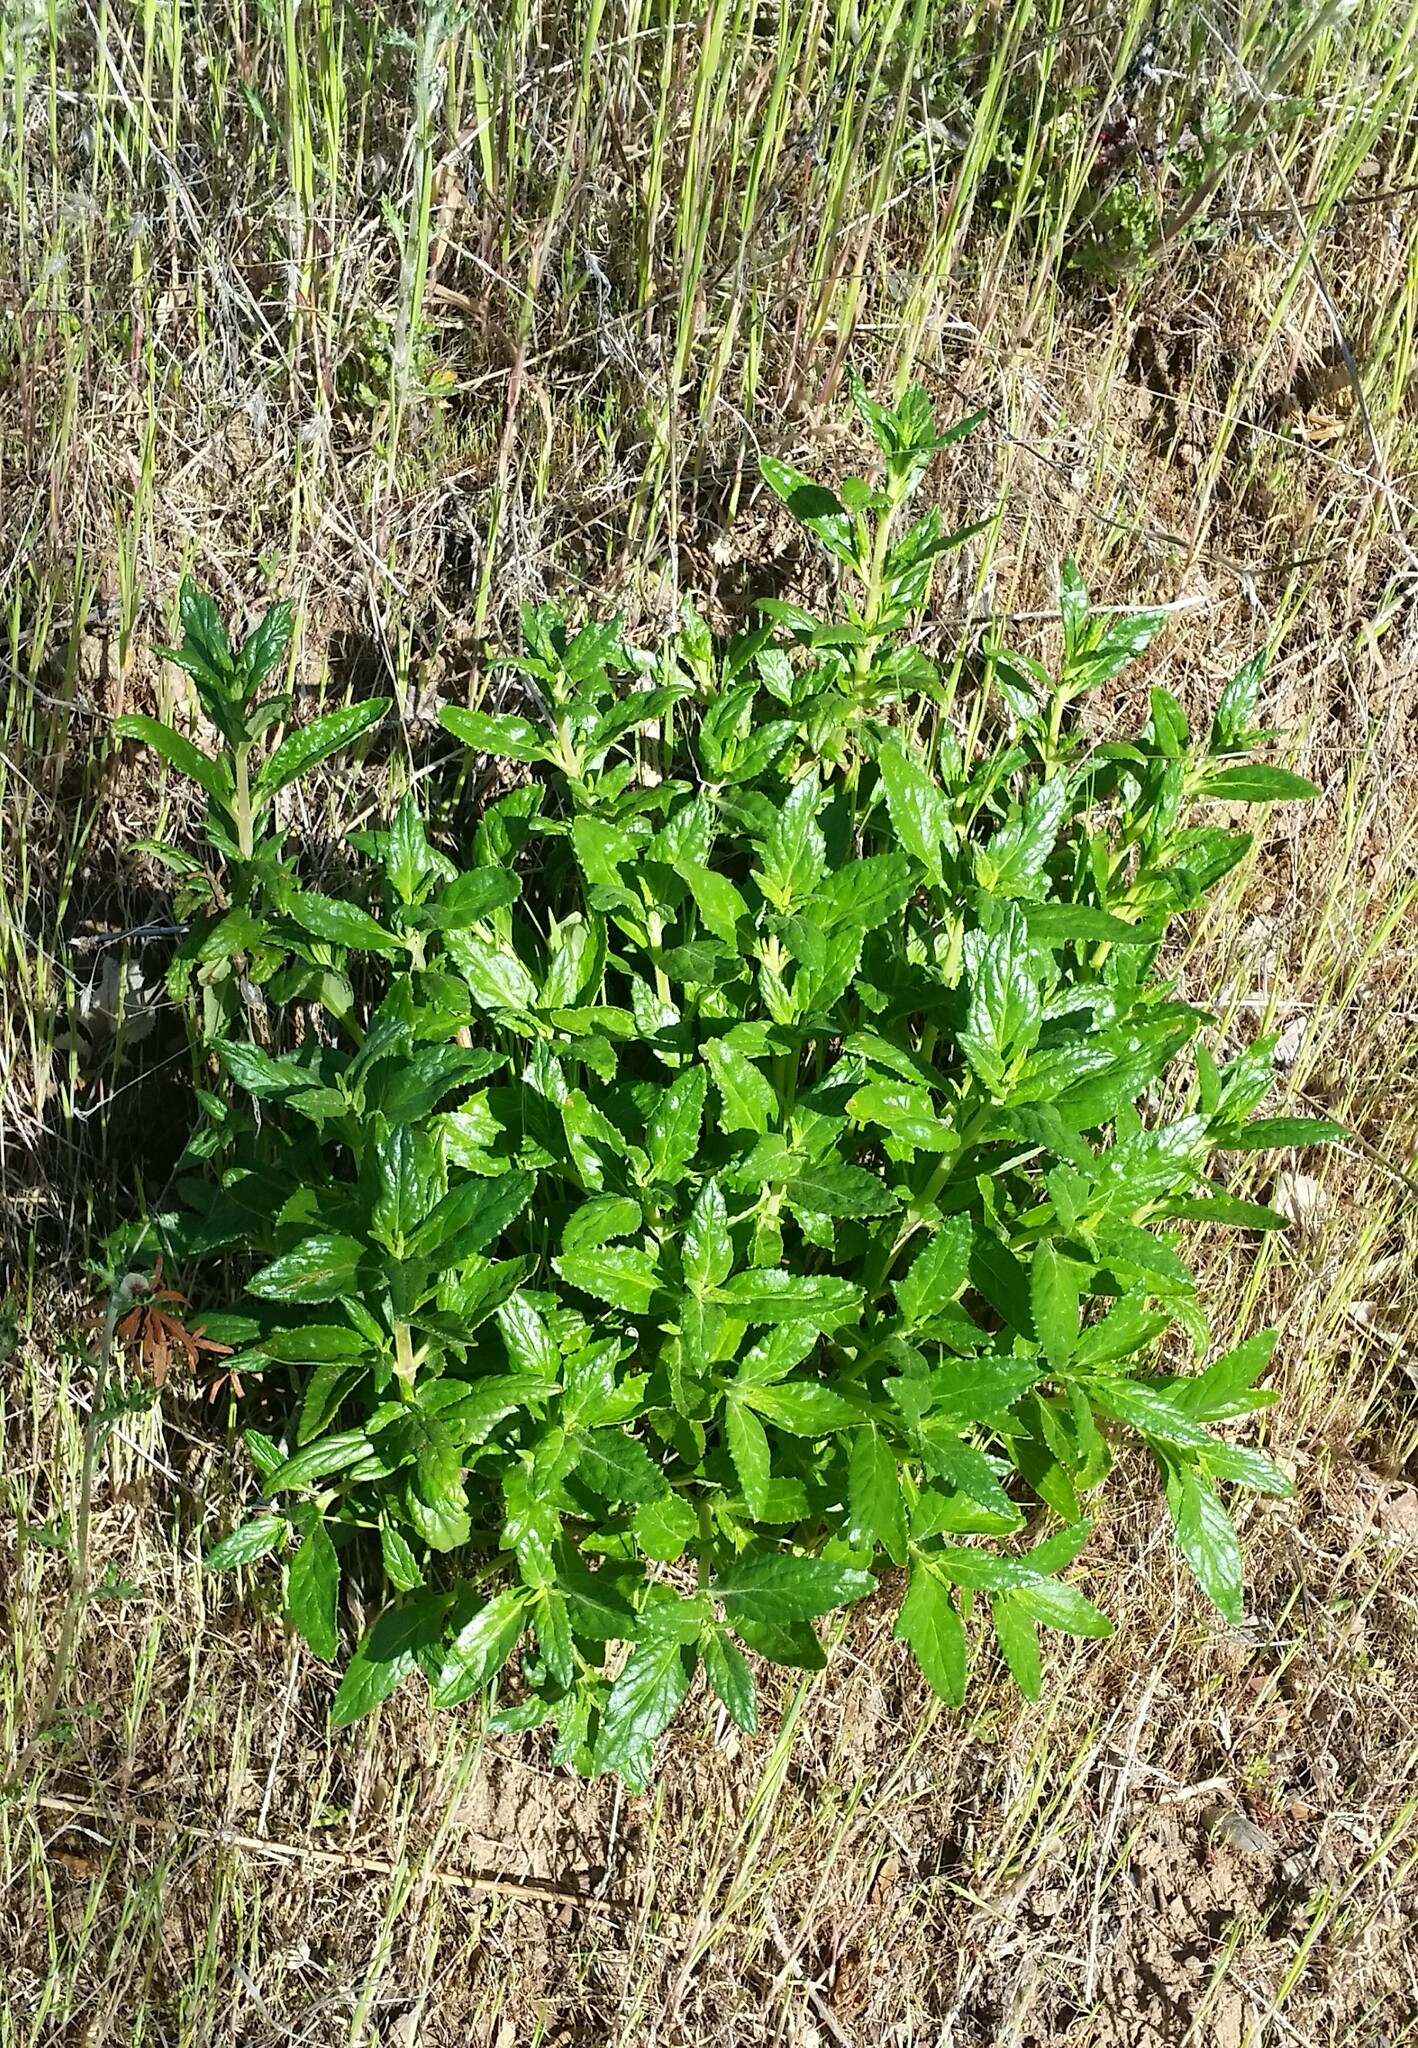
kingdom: Plantae
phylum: Tracheophyta
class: Magnoliopsida
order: Lamiales
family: Phrymaceae
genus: Diplacus
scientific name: Diplacus aurantiacus
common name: Bush monkey-flower
